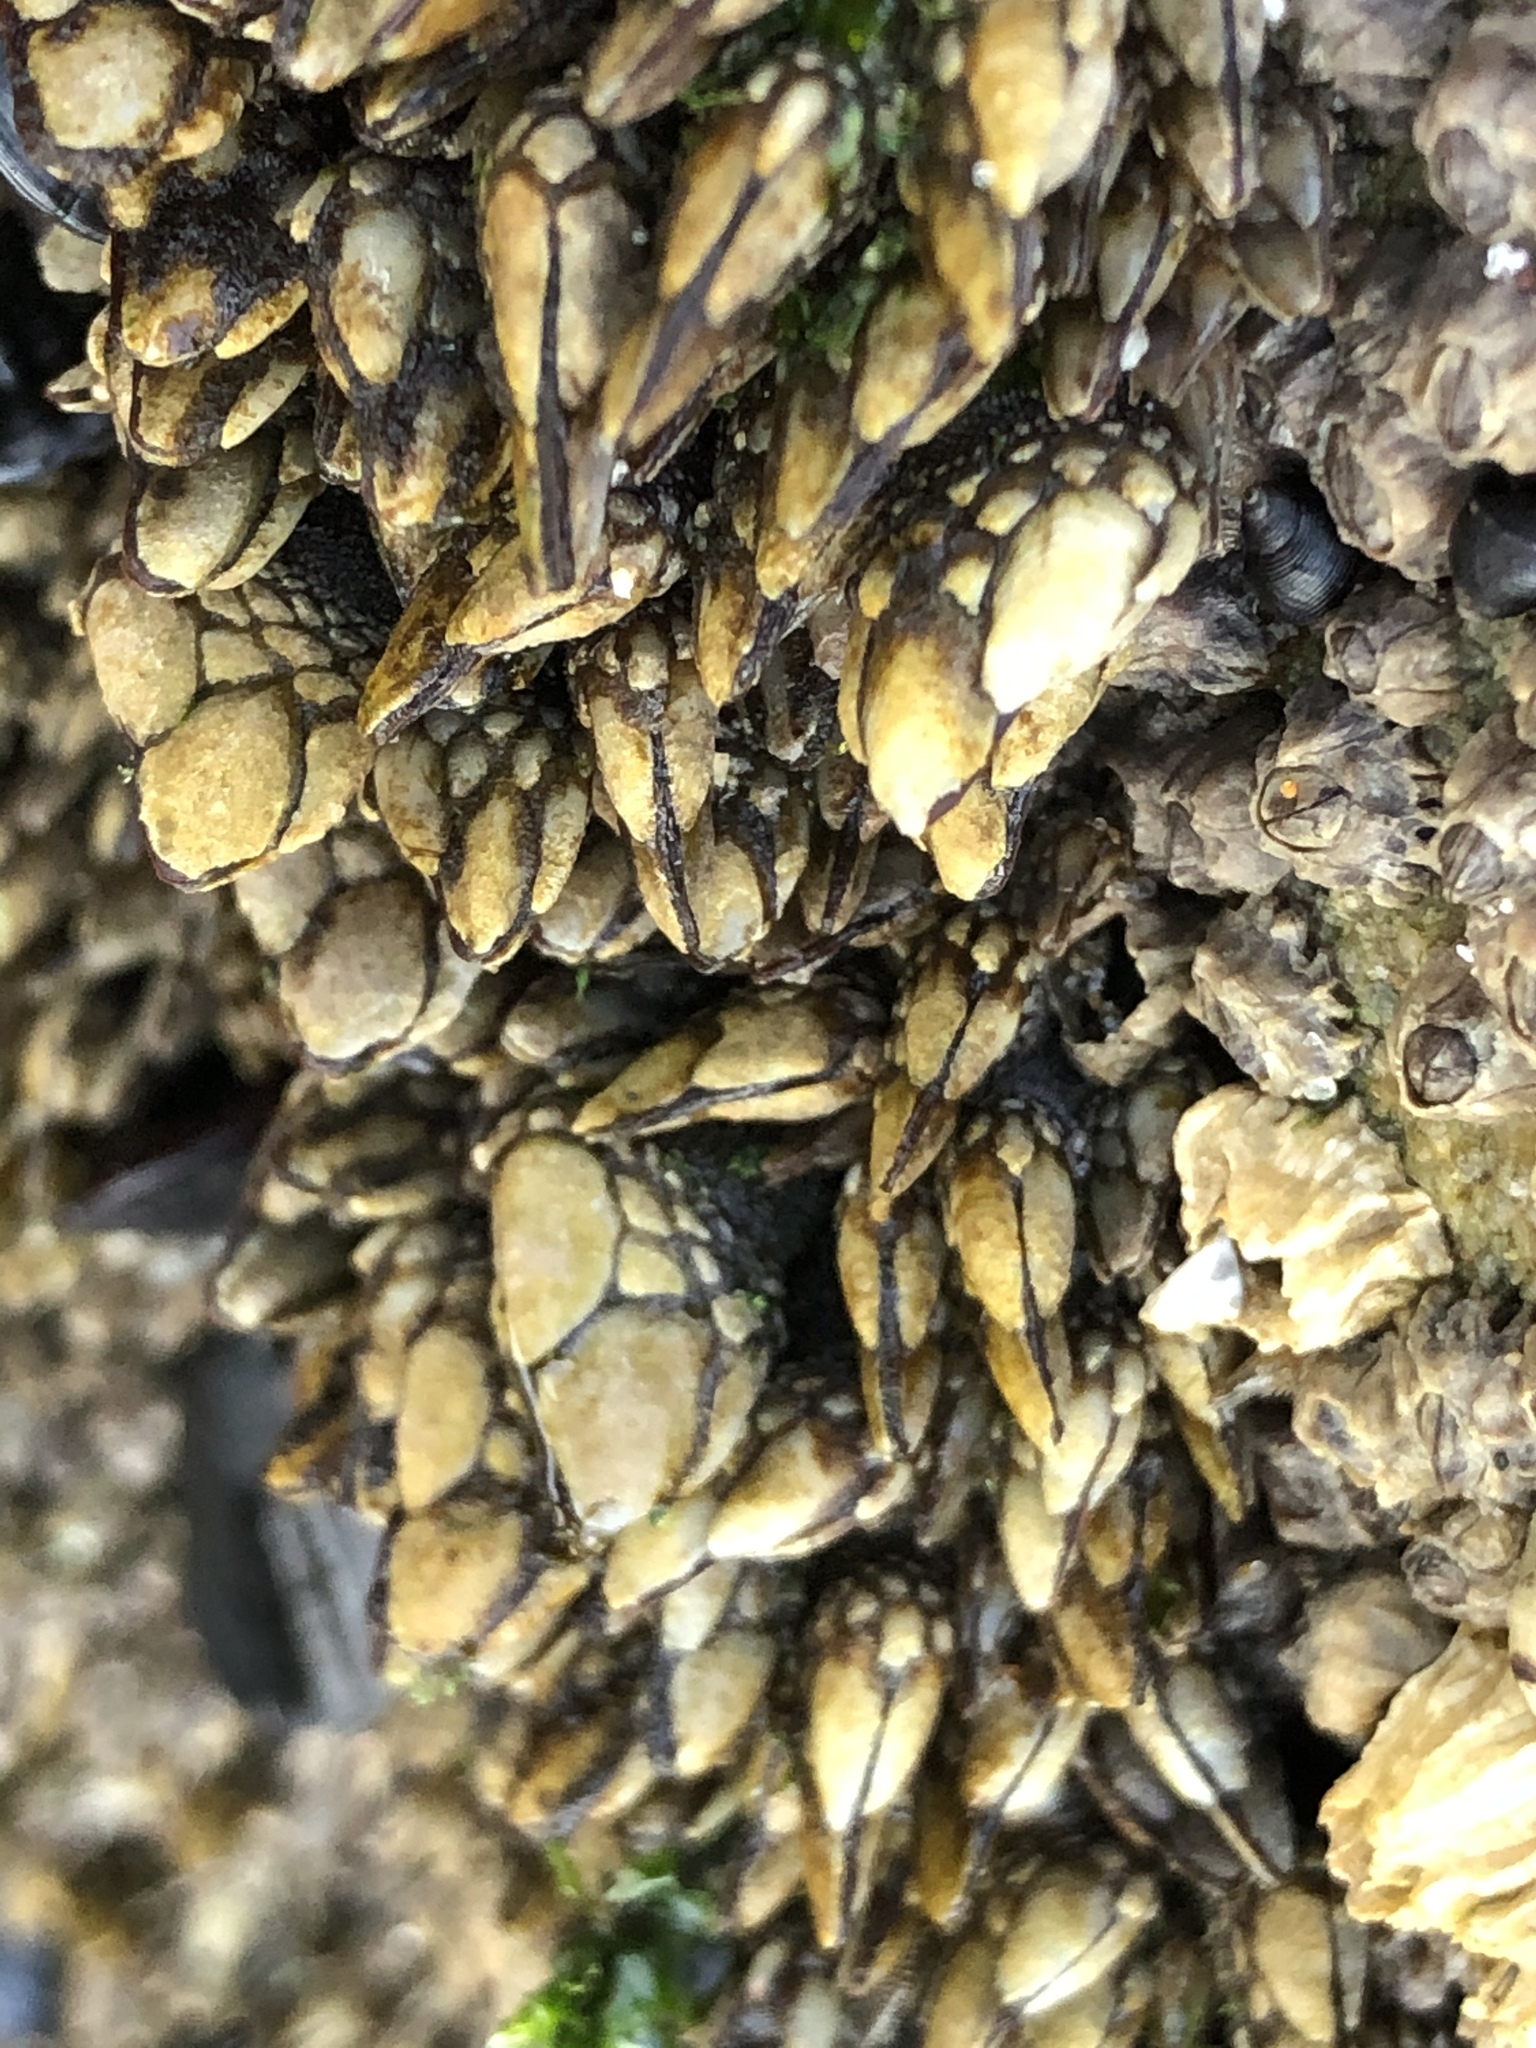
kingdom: Animalia
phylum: Arthropoda
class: Maxillopoda
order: Pedunculata
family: Pollicipedidae
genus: Pollicipes
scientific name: Pollicipes polymerus
